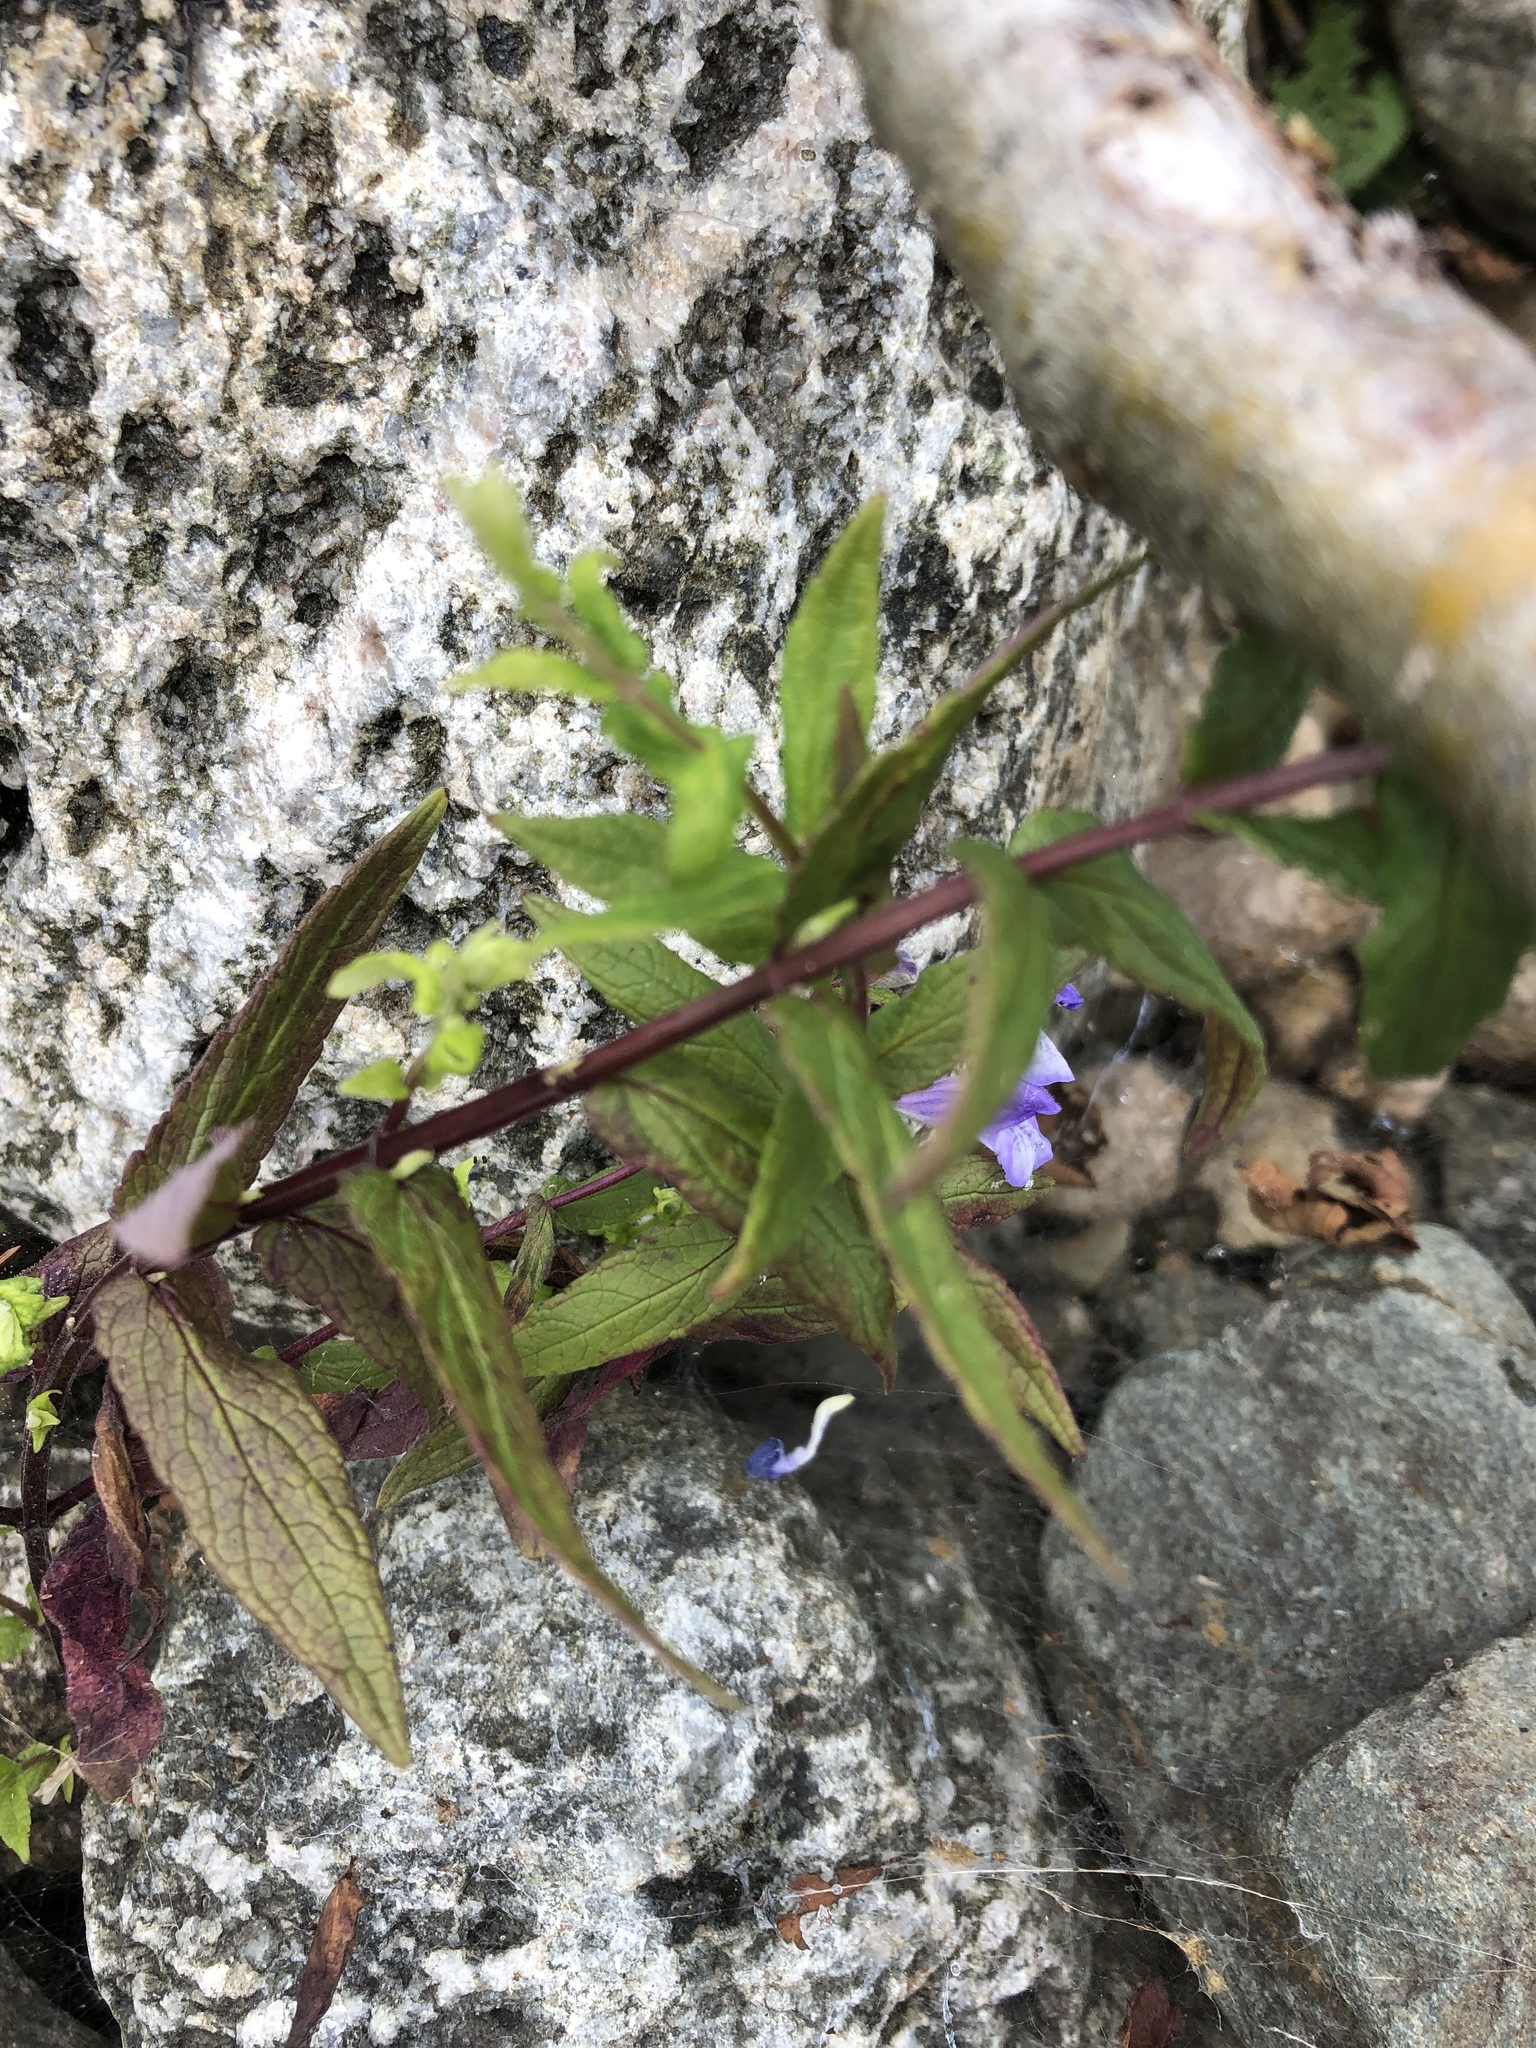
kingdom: Plantae
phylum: Tracheophyta
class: Magnoliopsida
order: Lamiales
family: Lamiaceae
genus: Scutellaria
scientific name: Scutellaria galericulata
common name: Skullcap
